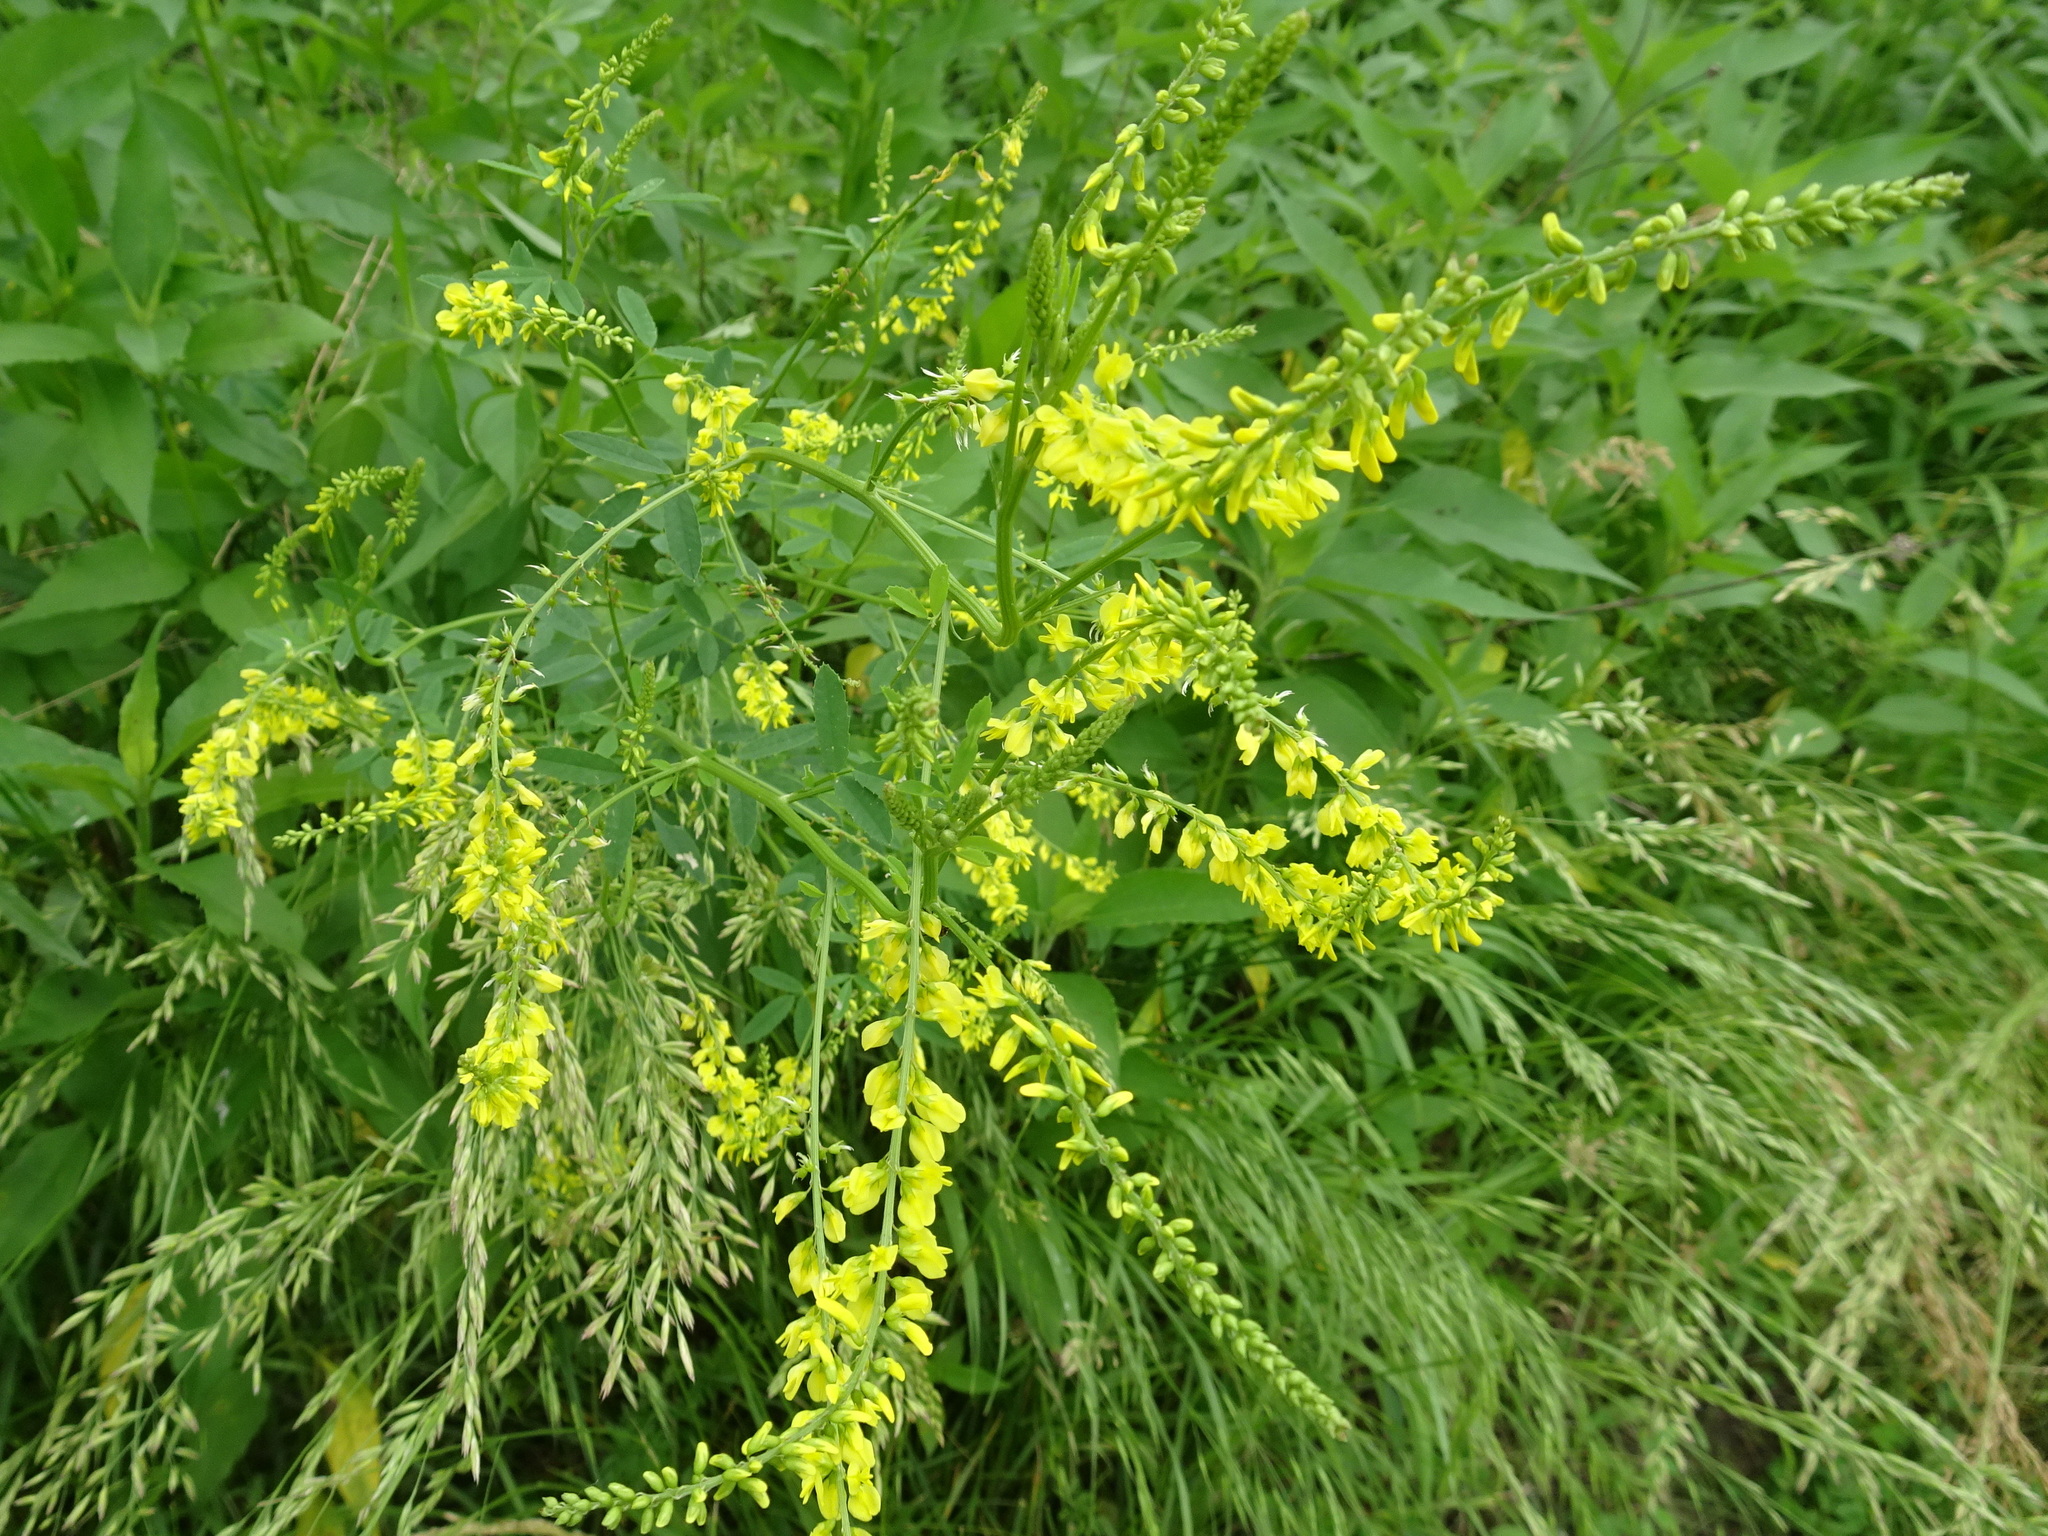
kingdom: Plantae
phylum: Tracheophyta
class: Magnoliopsida
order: Fabales
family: Fabaceae
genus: Melilotus
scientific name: Melilotus officinalis
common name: Sweetclover
